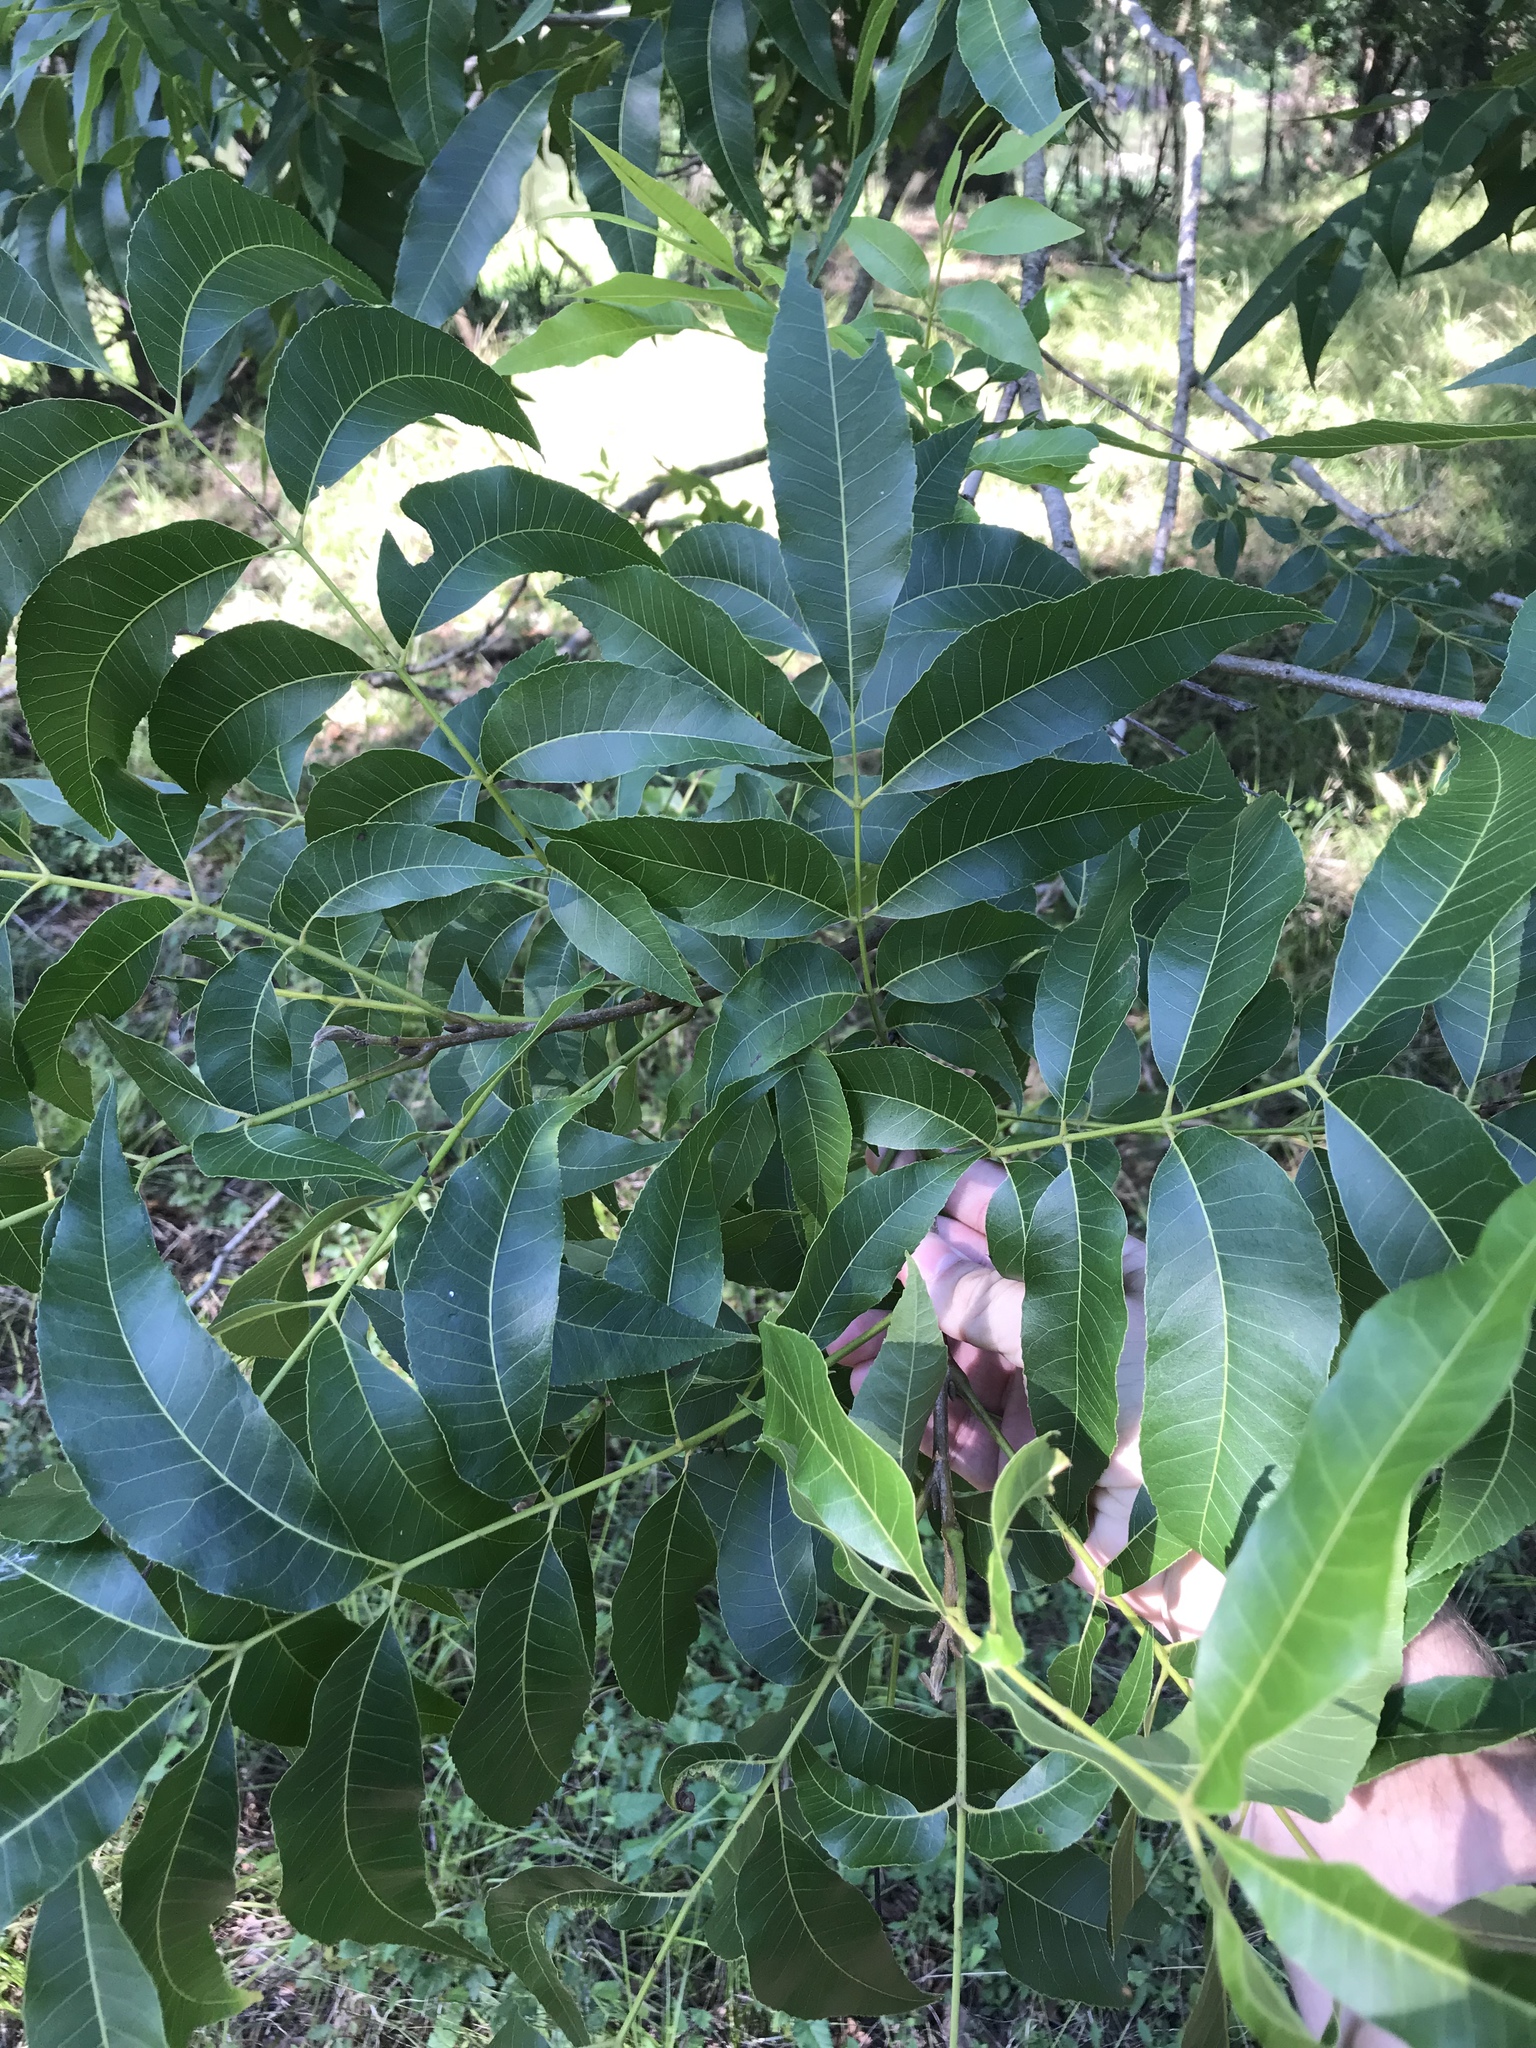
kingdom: Plantae
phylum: Tracheophyta
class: Magnoliopsida
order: Fagales
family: Juglandaceae
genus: Carya
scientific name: Carya illinoinensis
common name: Pecan
